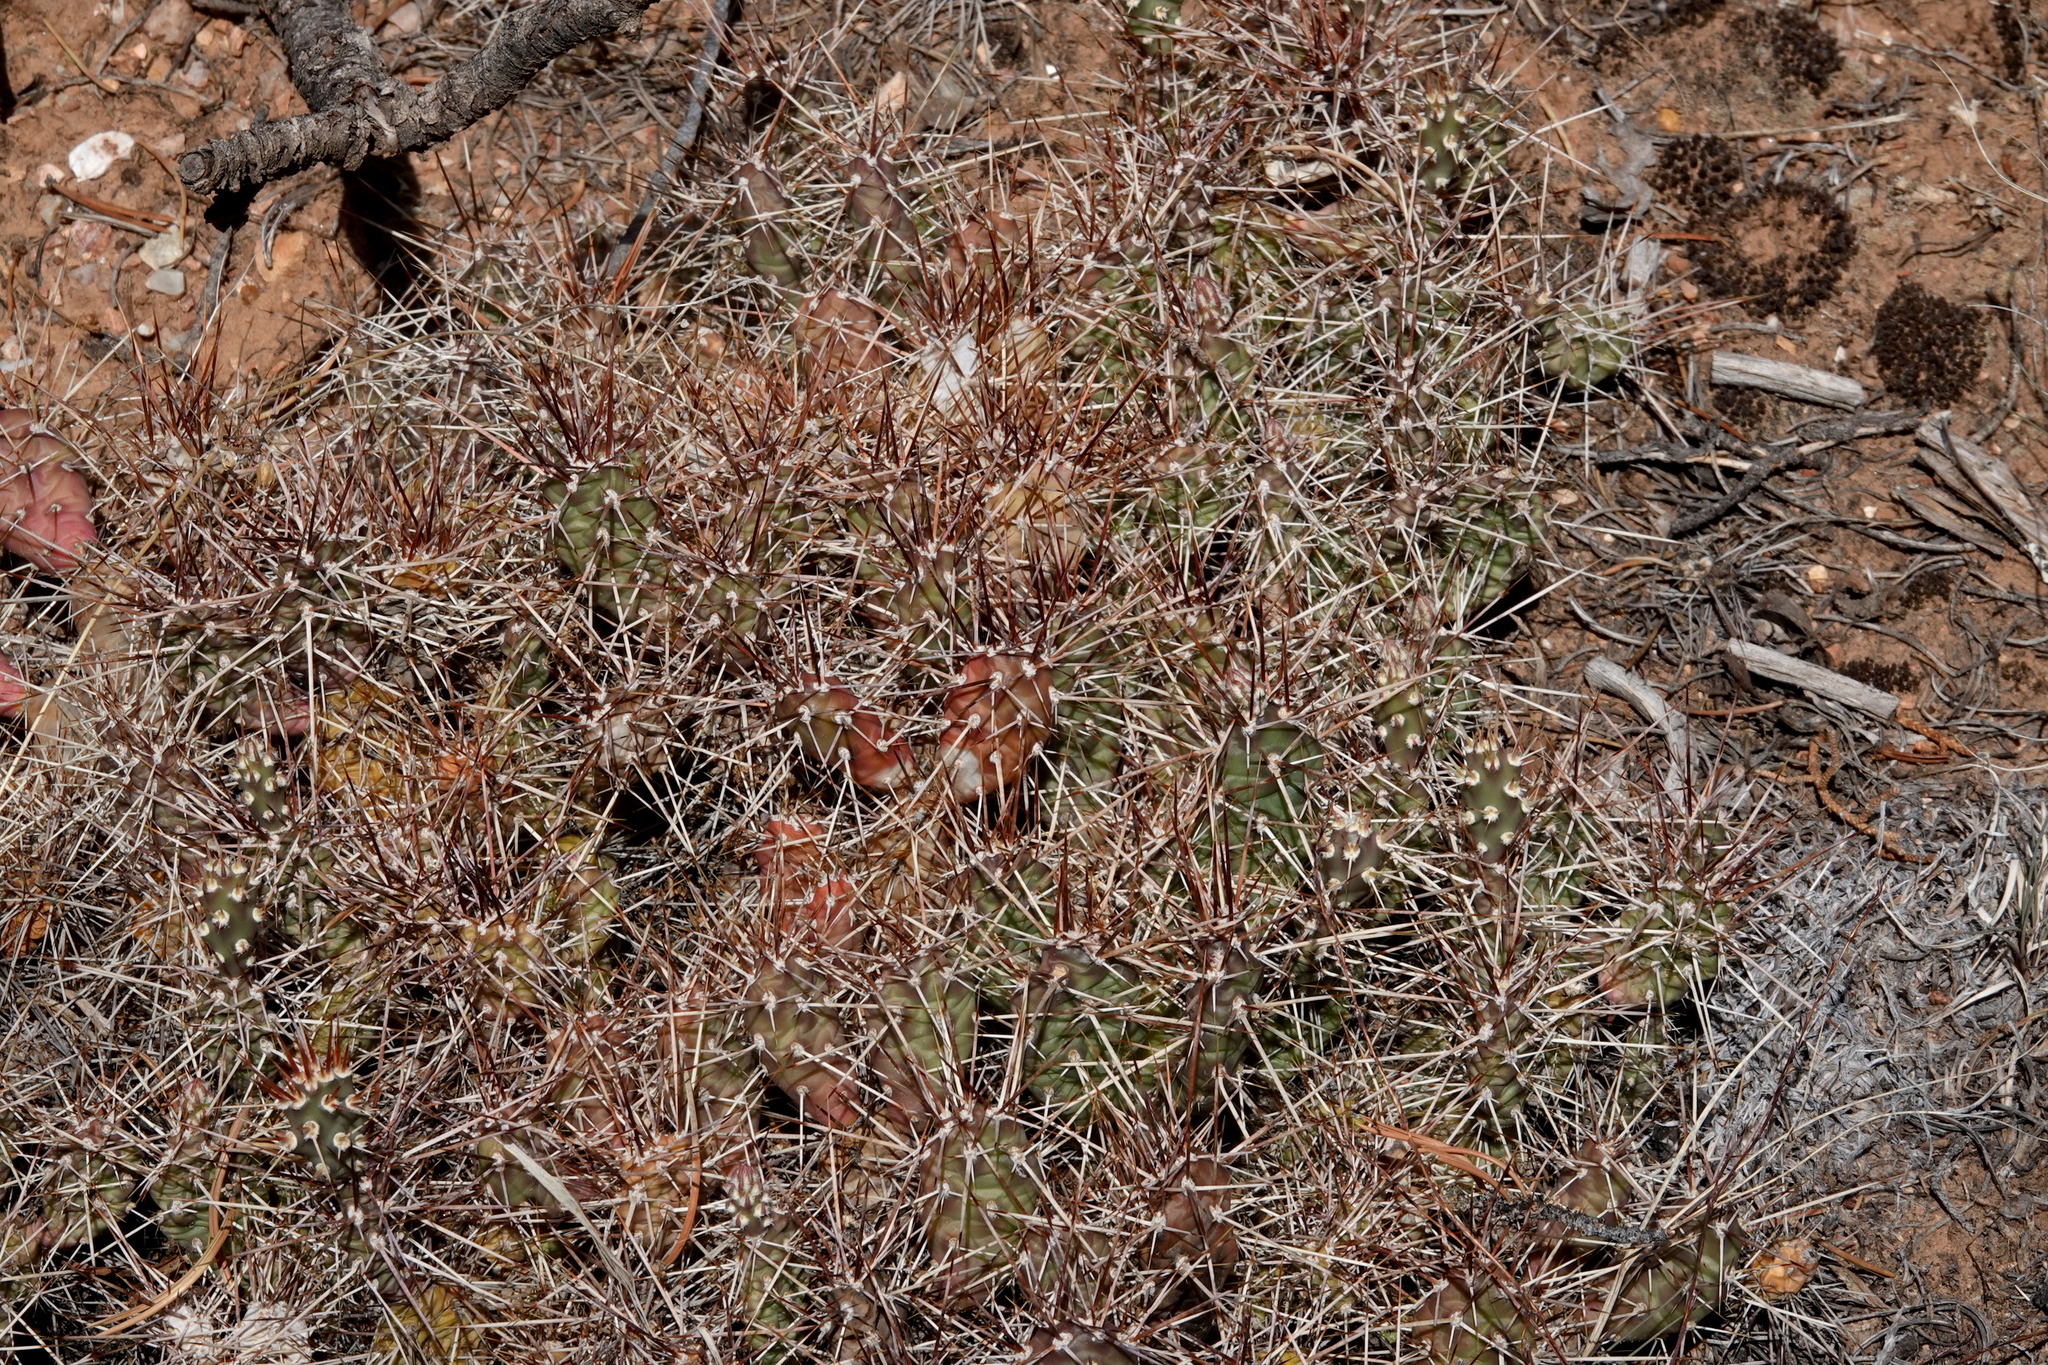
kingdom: Plantae
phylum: Tracheophyta
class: Magnoliopsida
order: Caryophyllales
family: Cactaceae
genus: Opuntia
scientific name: Opuntia fragilis
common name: Brittle cactus
